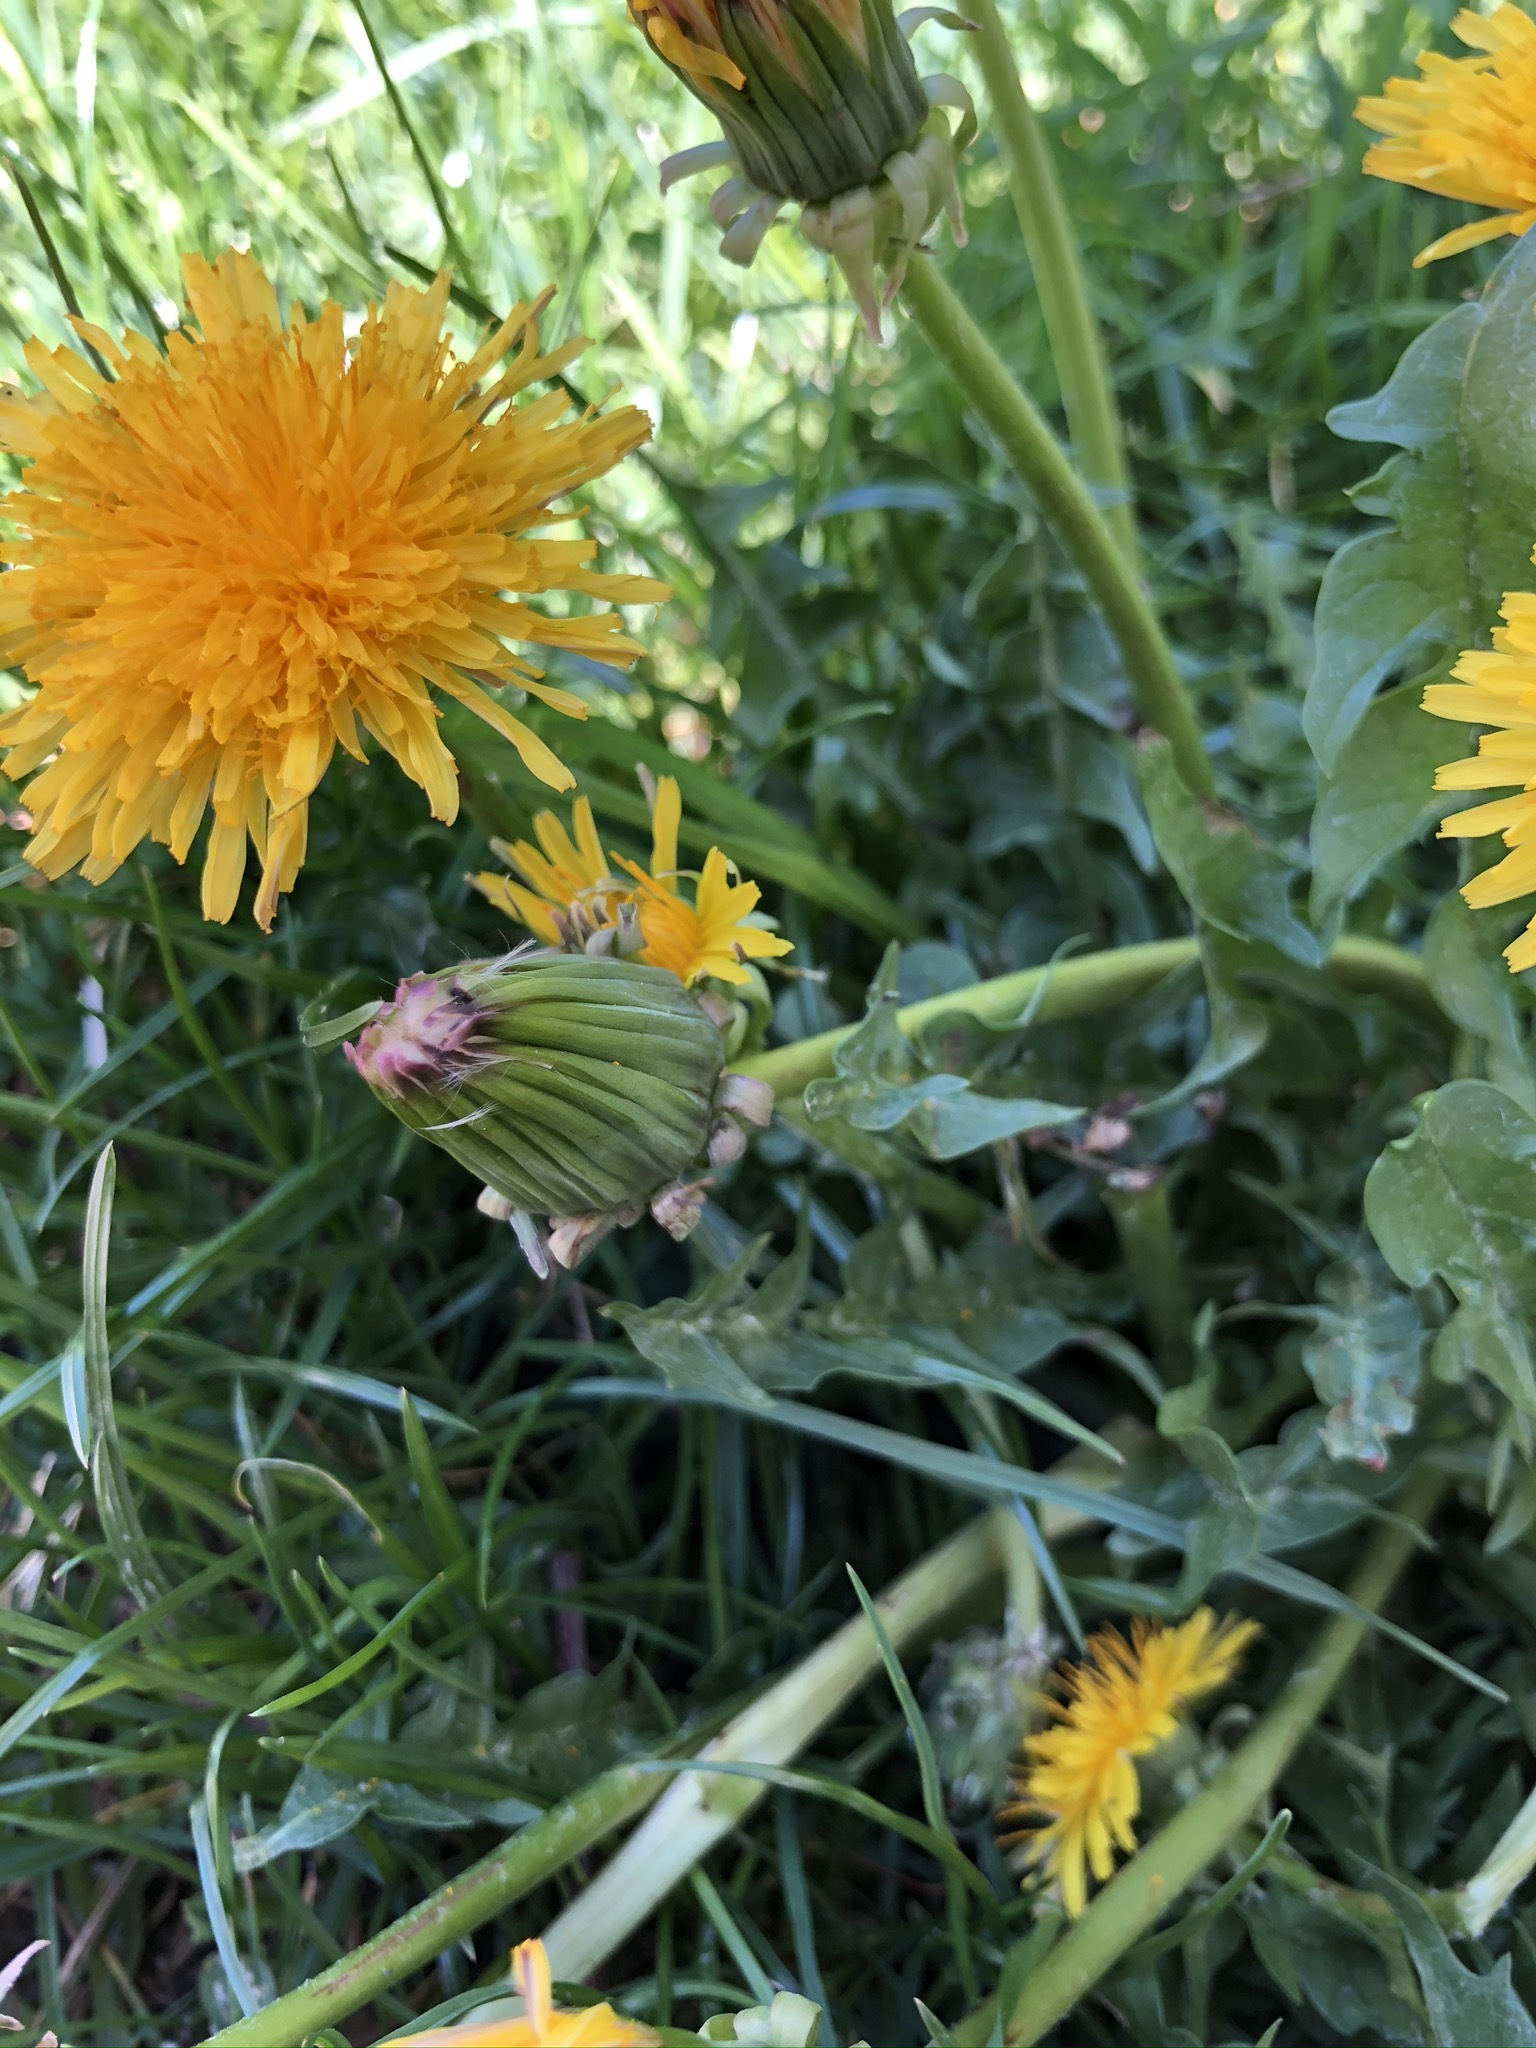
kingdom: Plantae
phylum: Tracheophyta
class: Magnoliopsida
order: Asterales
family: Asteraceae
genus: Taraxacum
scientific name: Taraxacum officinale
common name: Common dandelion
